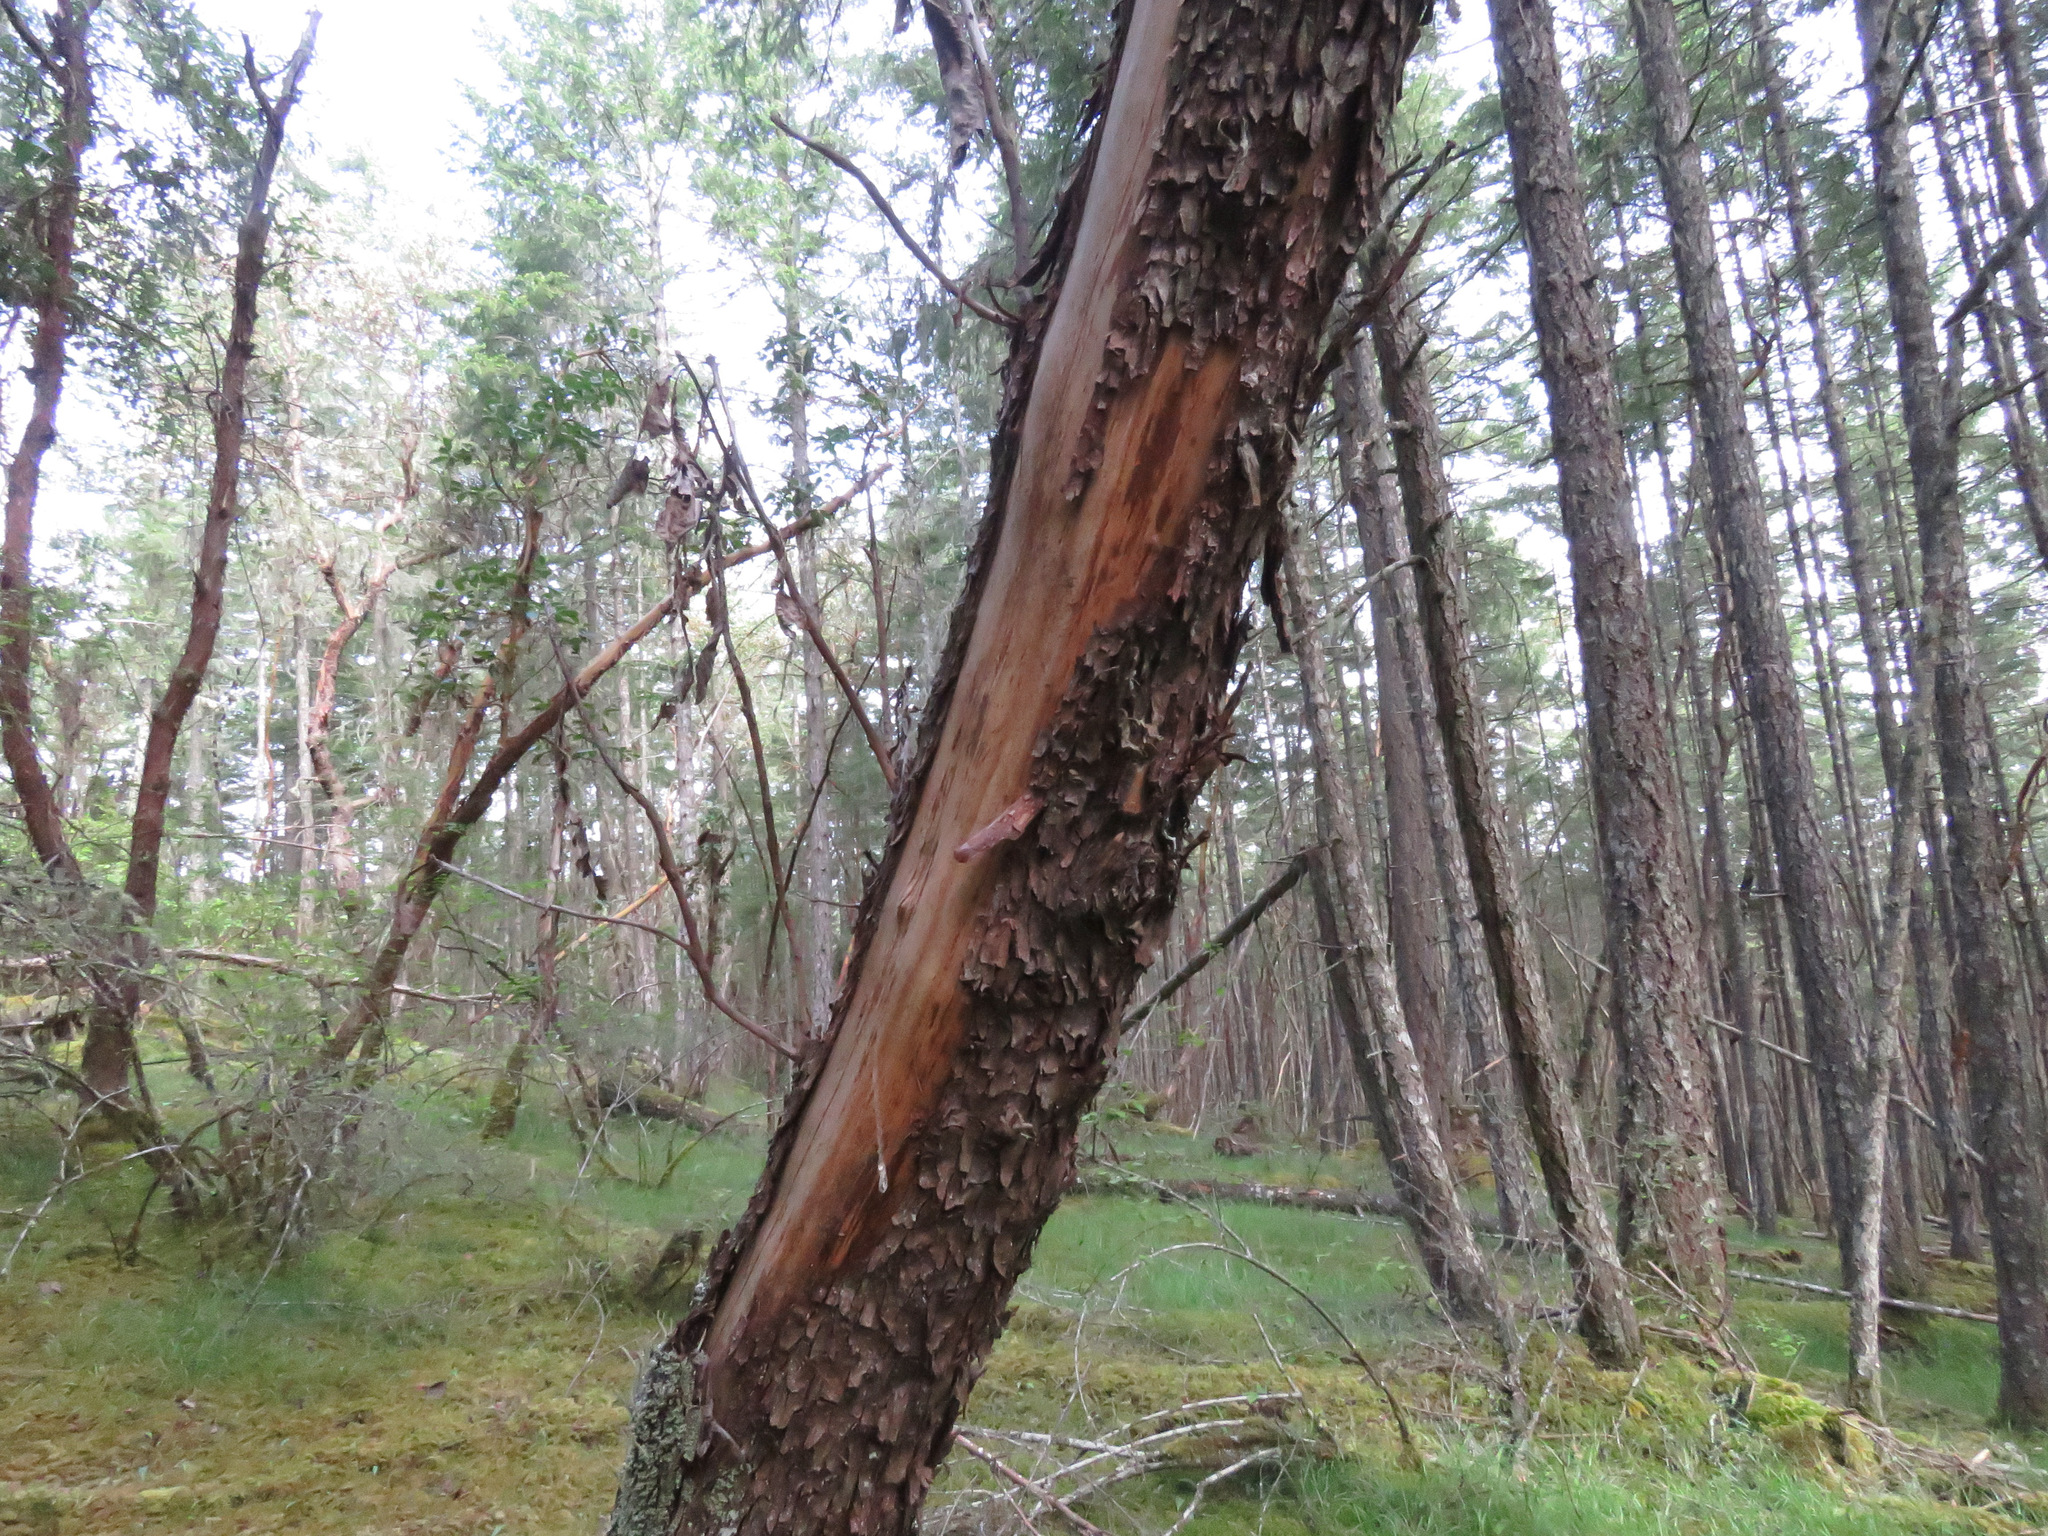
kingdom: Plantae
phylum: Tracheophyta
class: Magnoliopsida
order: Ericales
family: Ericaceae
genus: Arbutus
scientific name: Arbutus menziesii
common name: Pacific madrone
